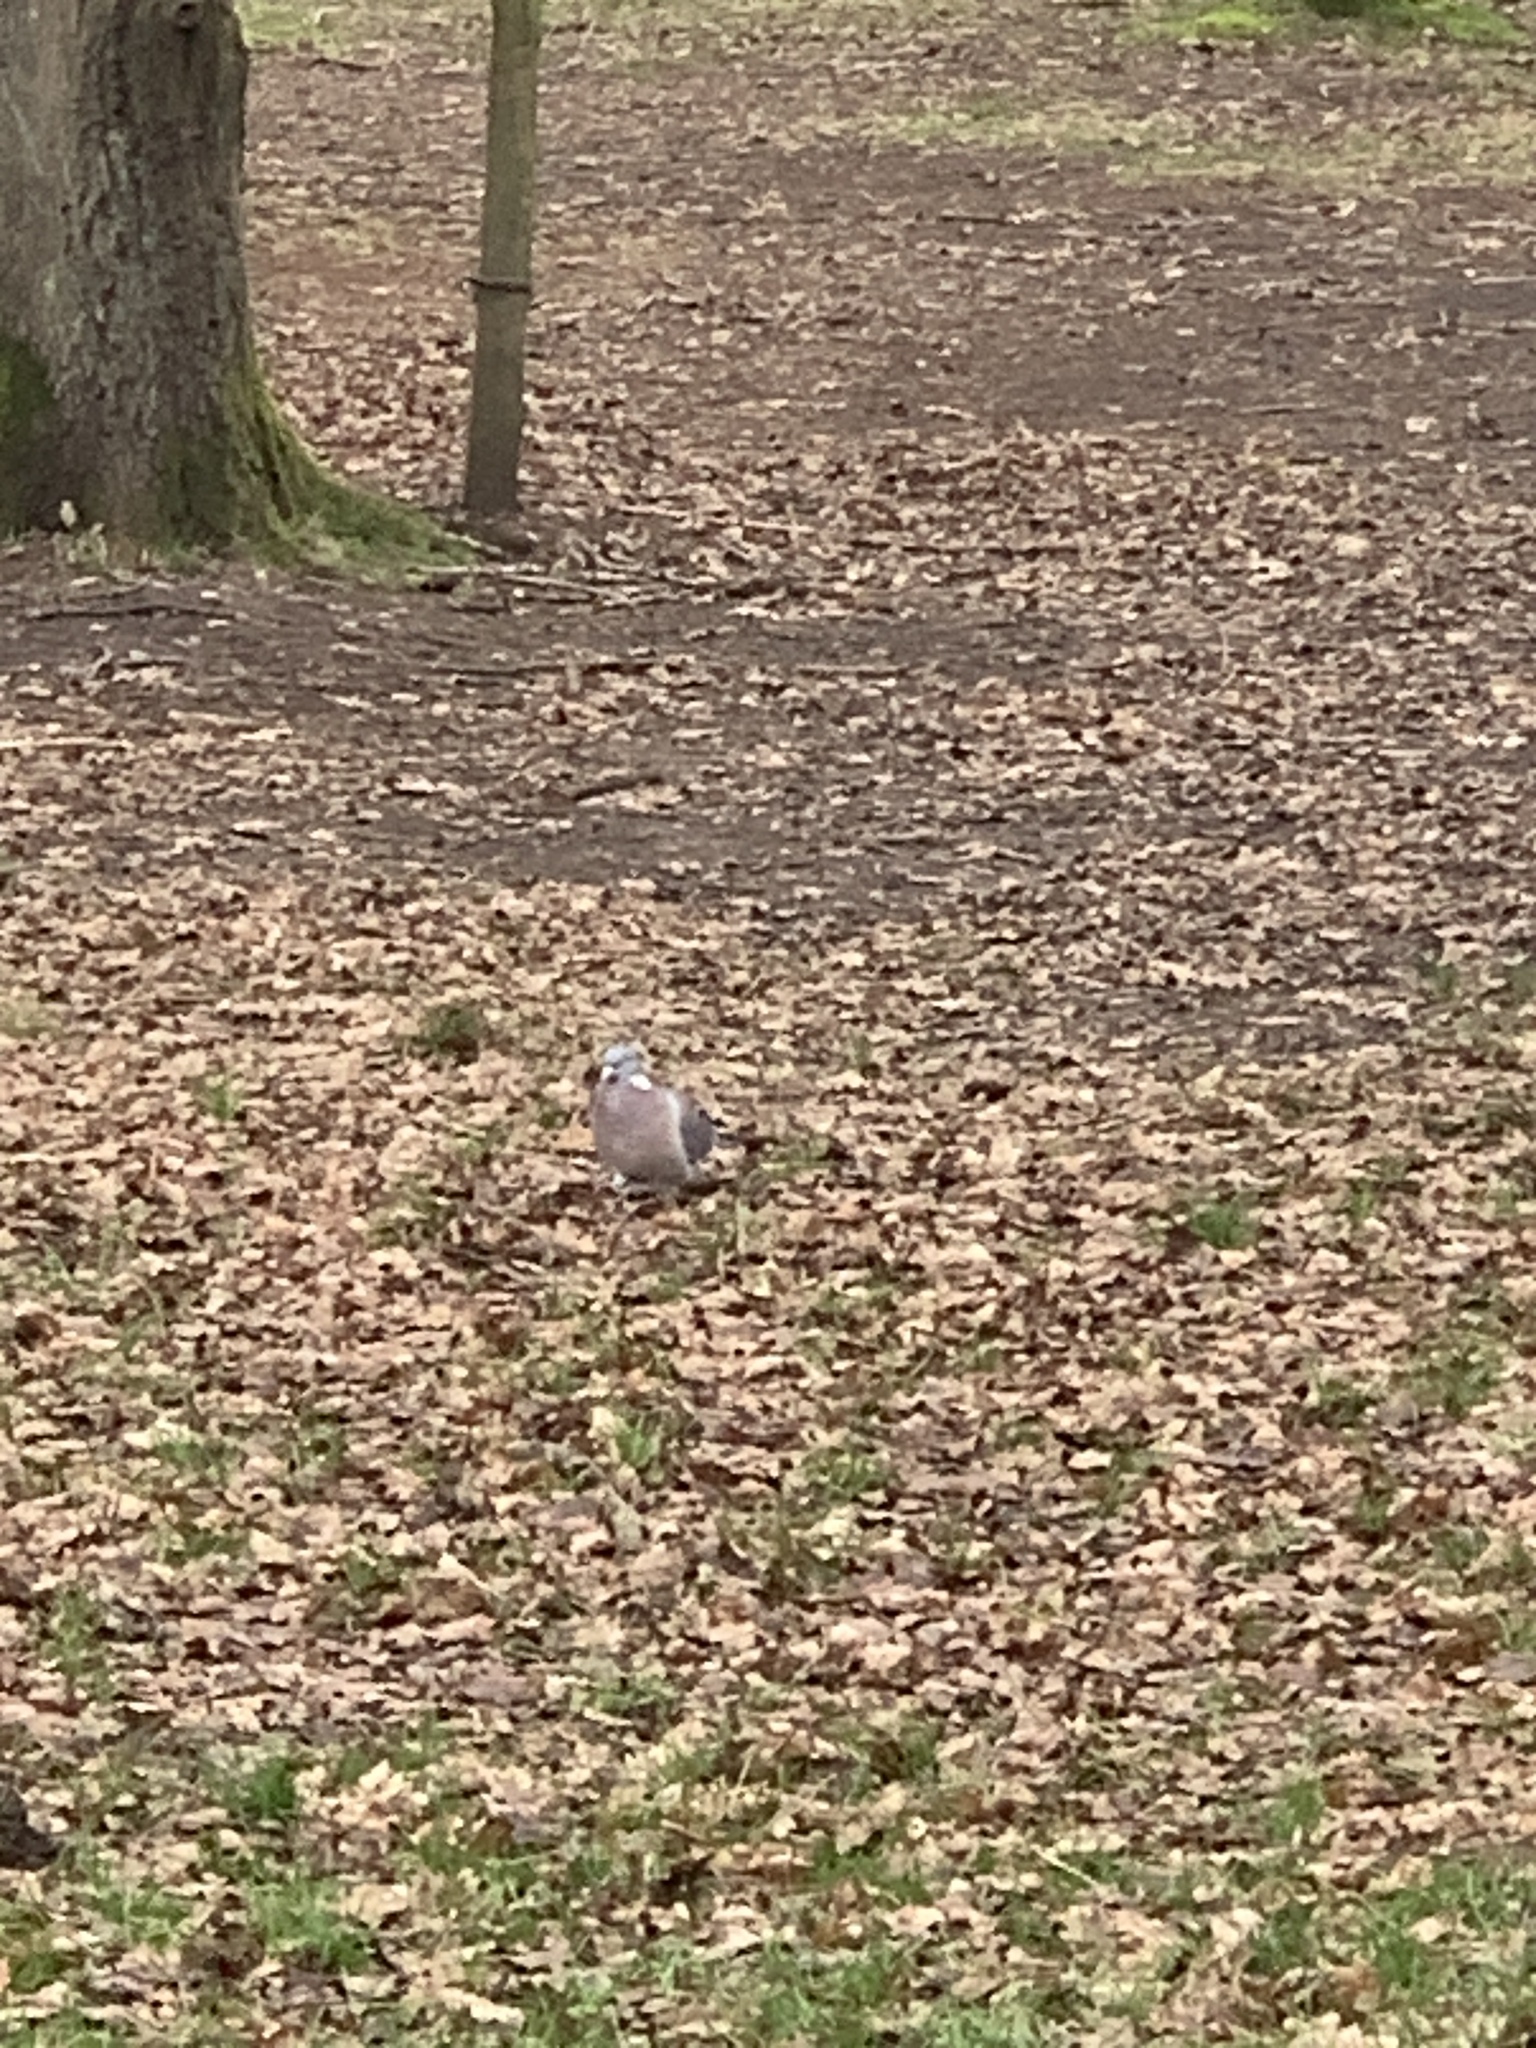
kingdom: Animalia
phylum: Chordata
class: Aves
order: Columbiformes
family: Columbidae
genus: Columba
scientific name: Columba palumbus
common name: Common wood pigeon
